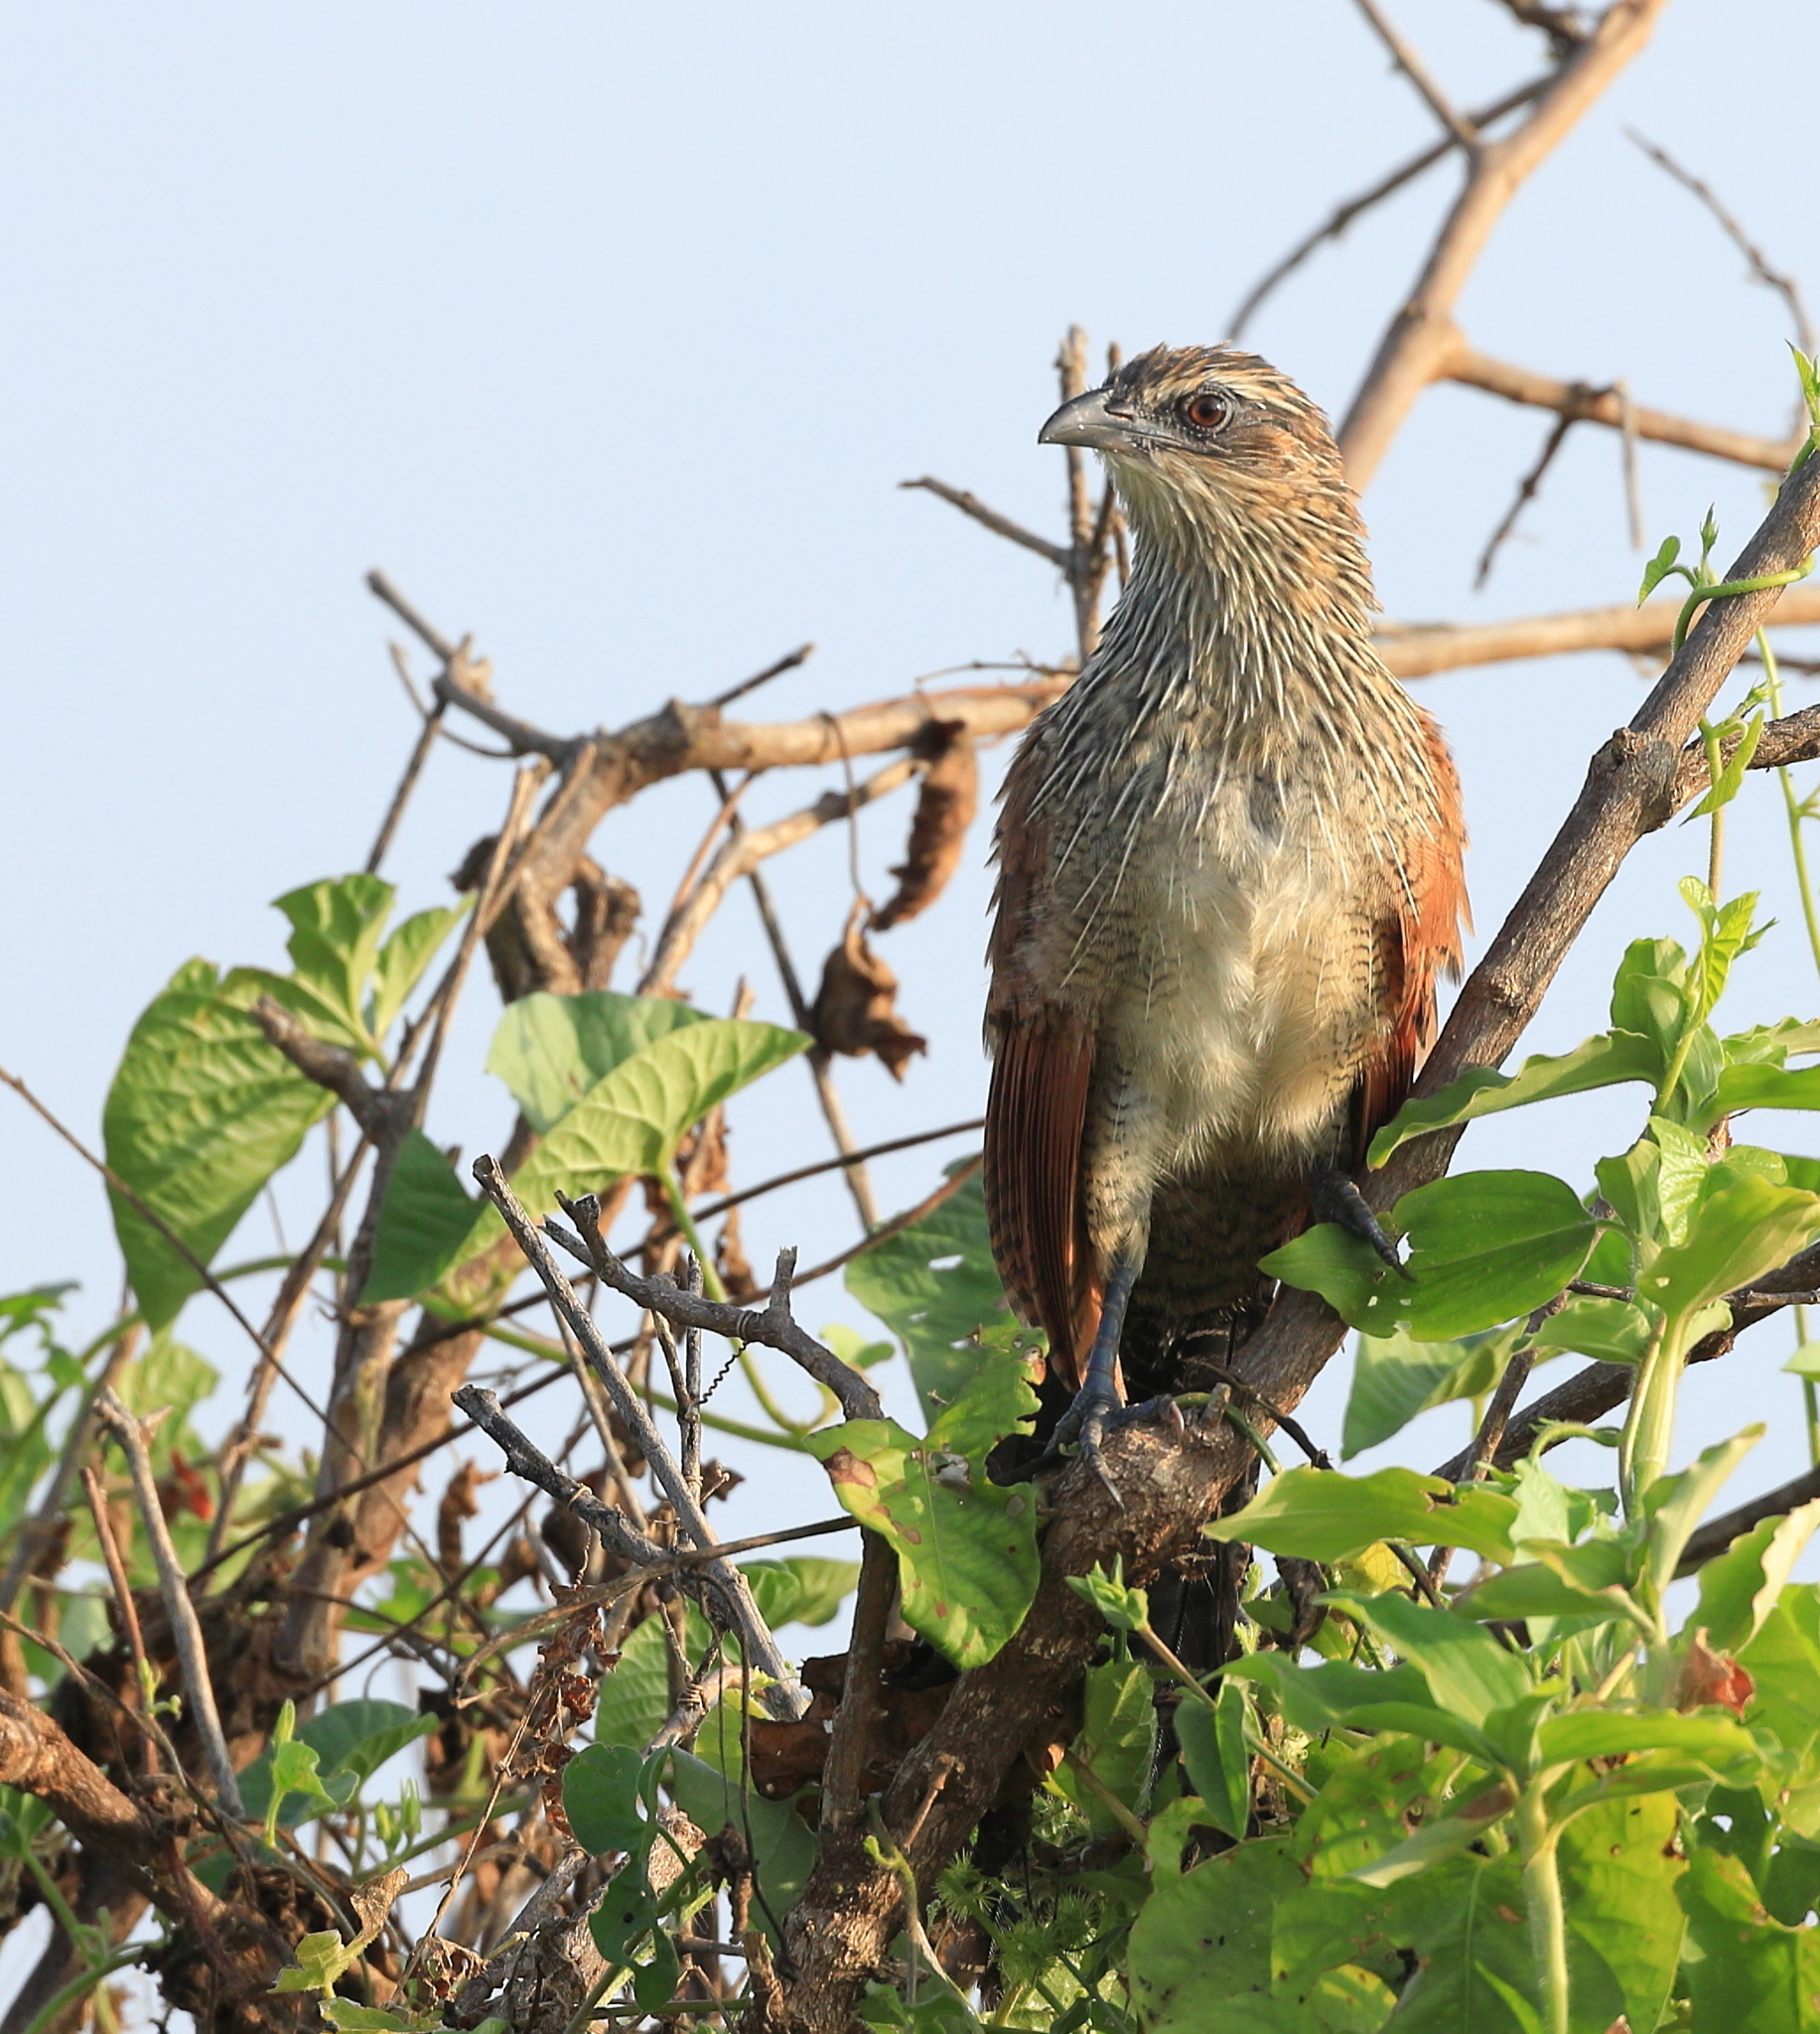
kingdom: Animalia
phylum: Chordata
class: Aves
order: Cuculiformes
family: Cuculidae
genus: Centropus
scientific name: Centropus superciliosus
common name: White-browed coucal
